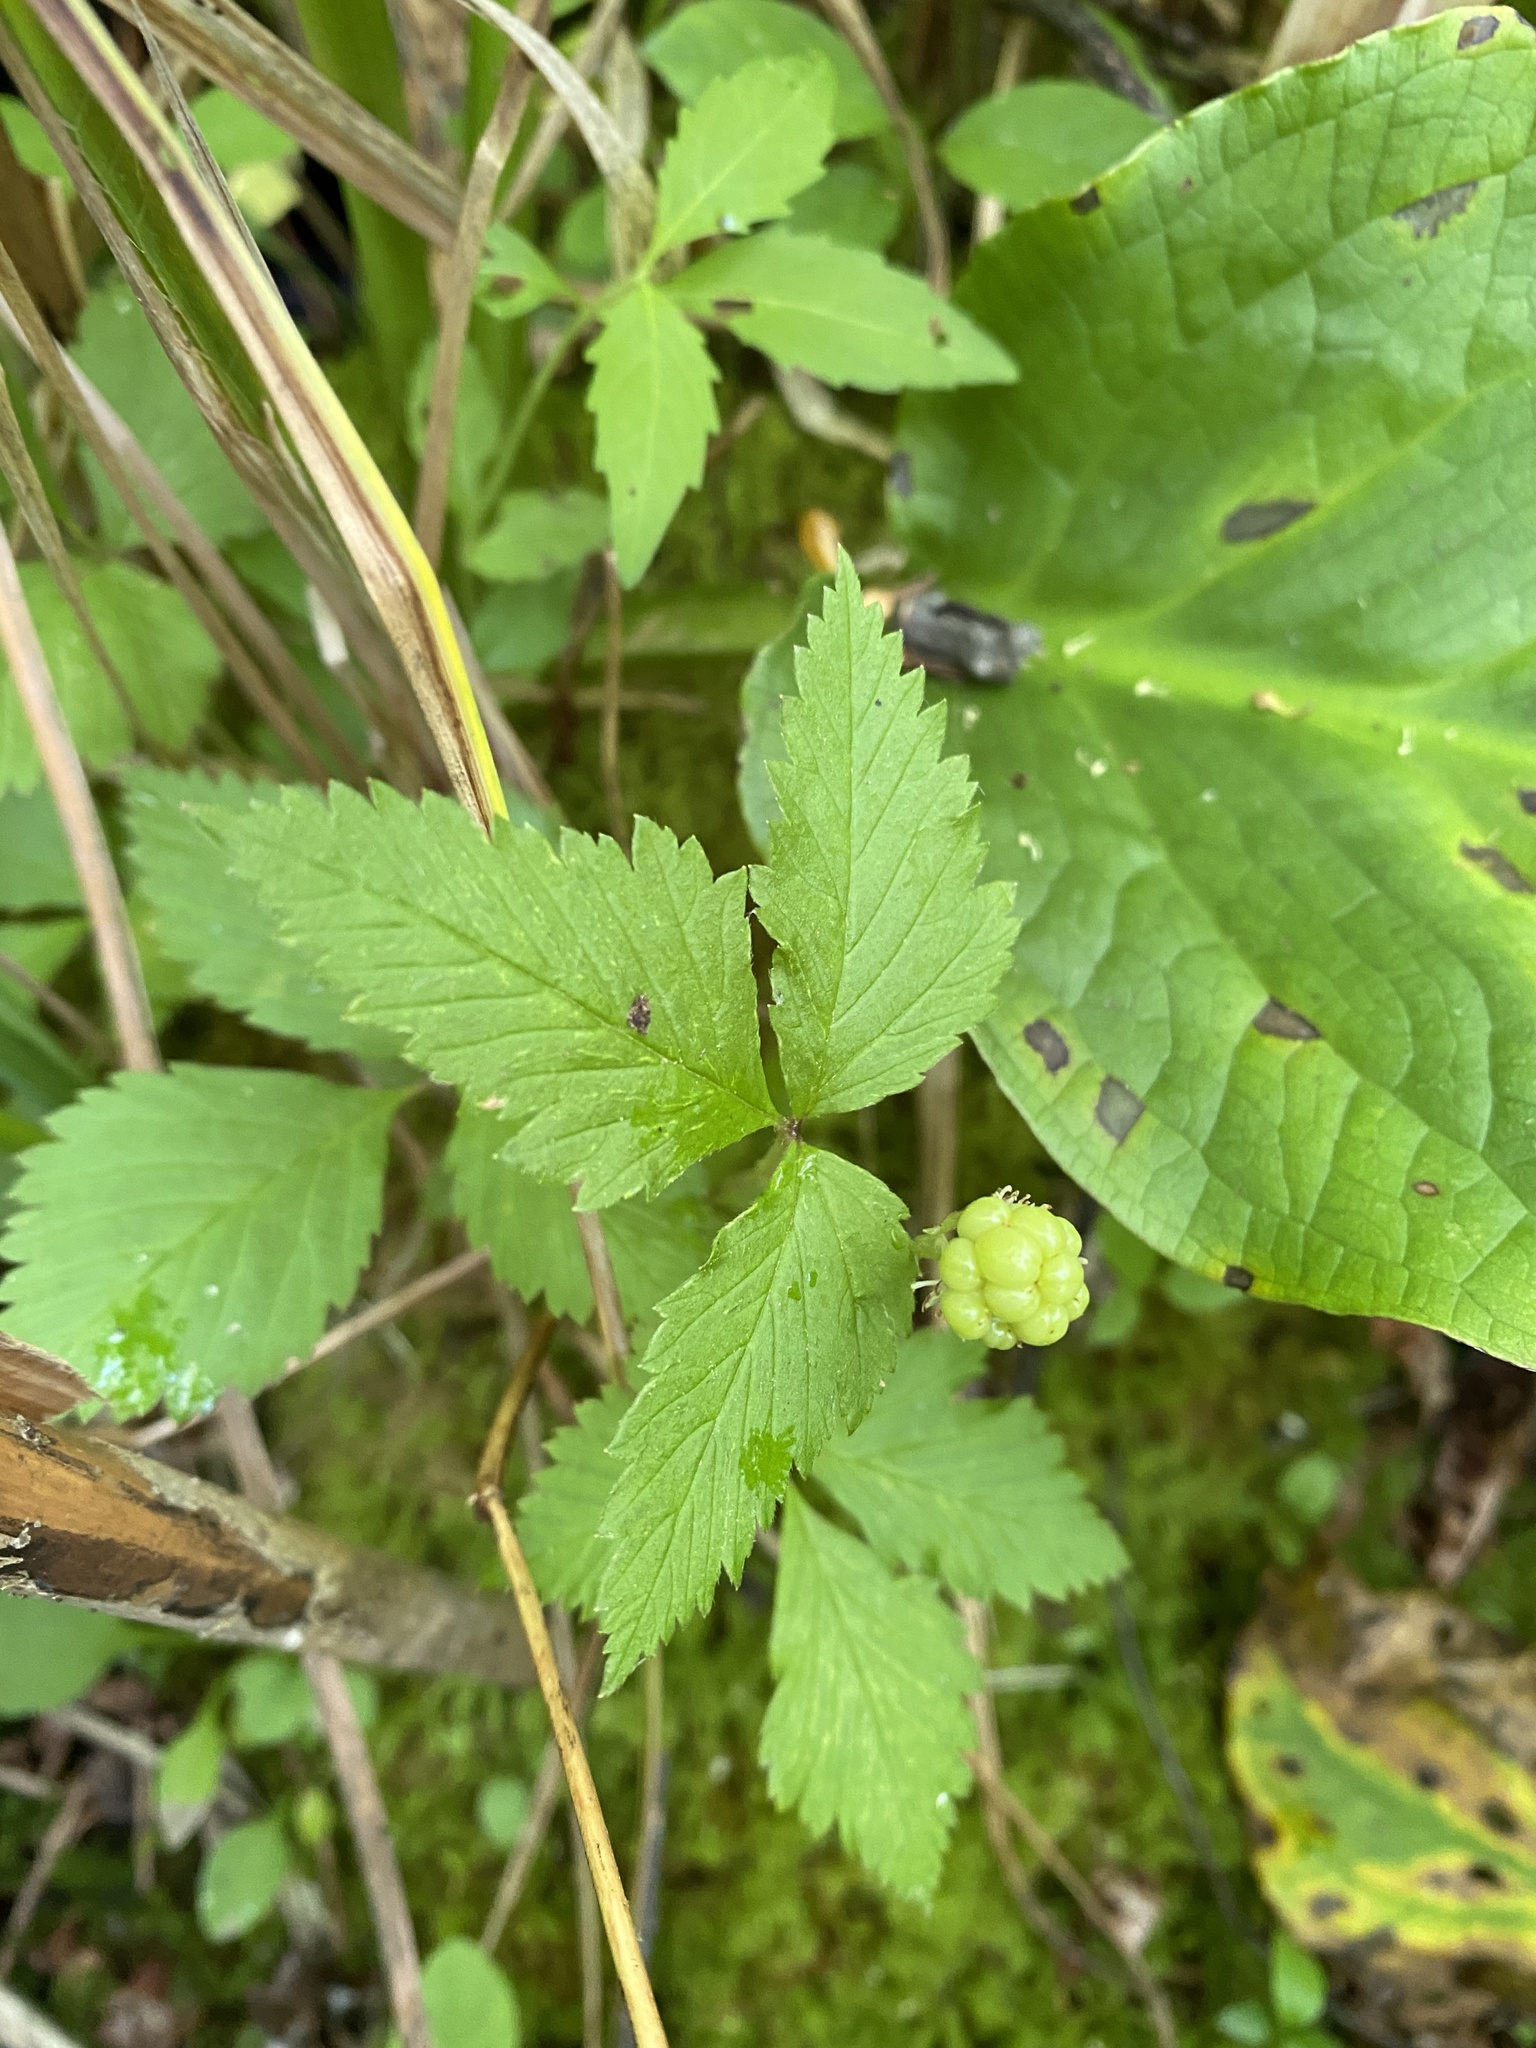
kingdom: Plantae
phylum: Tracheophyta
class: Magnoliopsida
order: Rosales
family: Rosaceae
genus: Rubus
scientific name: Rubus pubescens
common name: Dwarf raspberry
